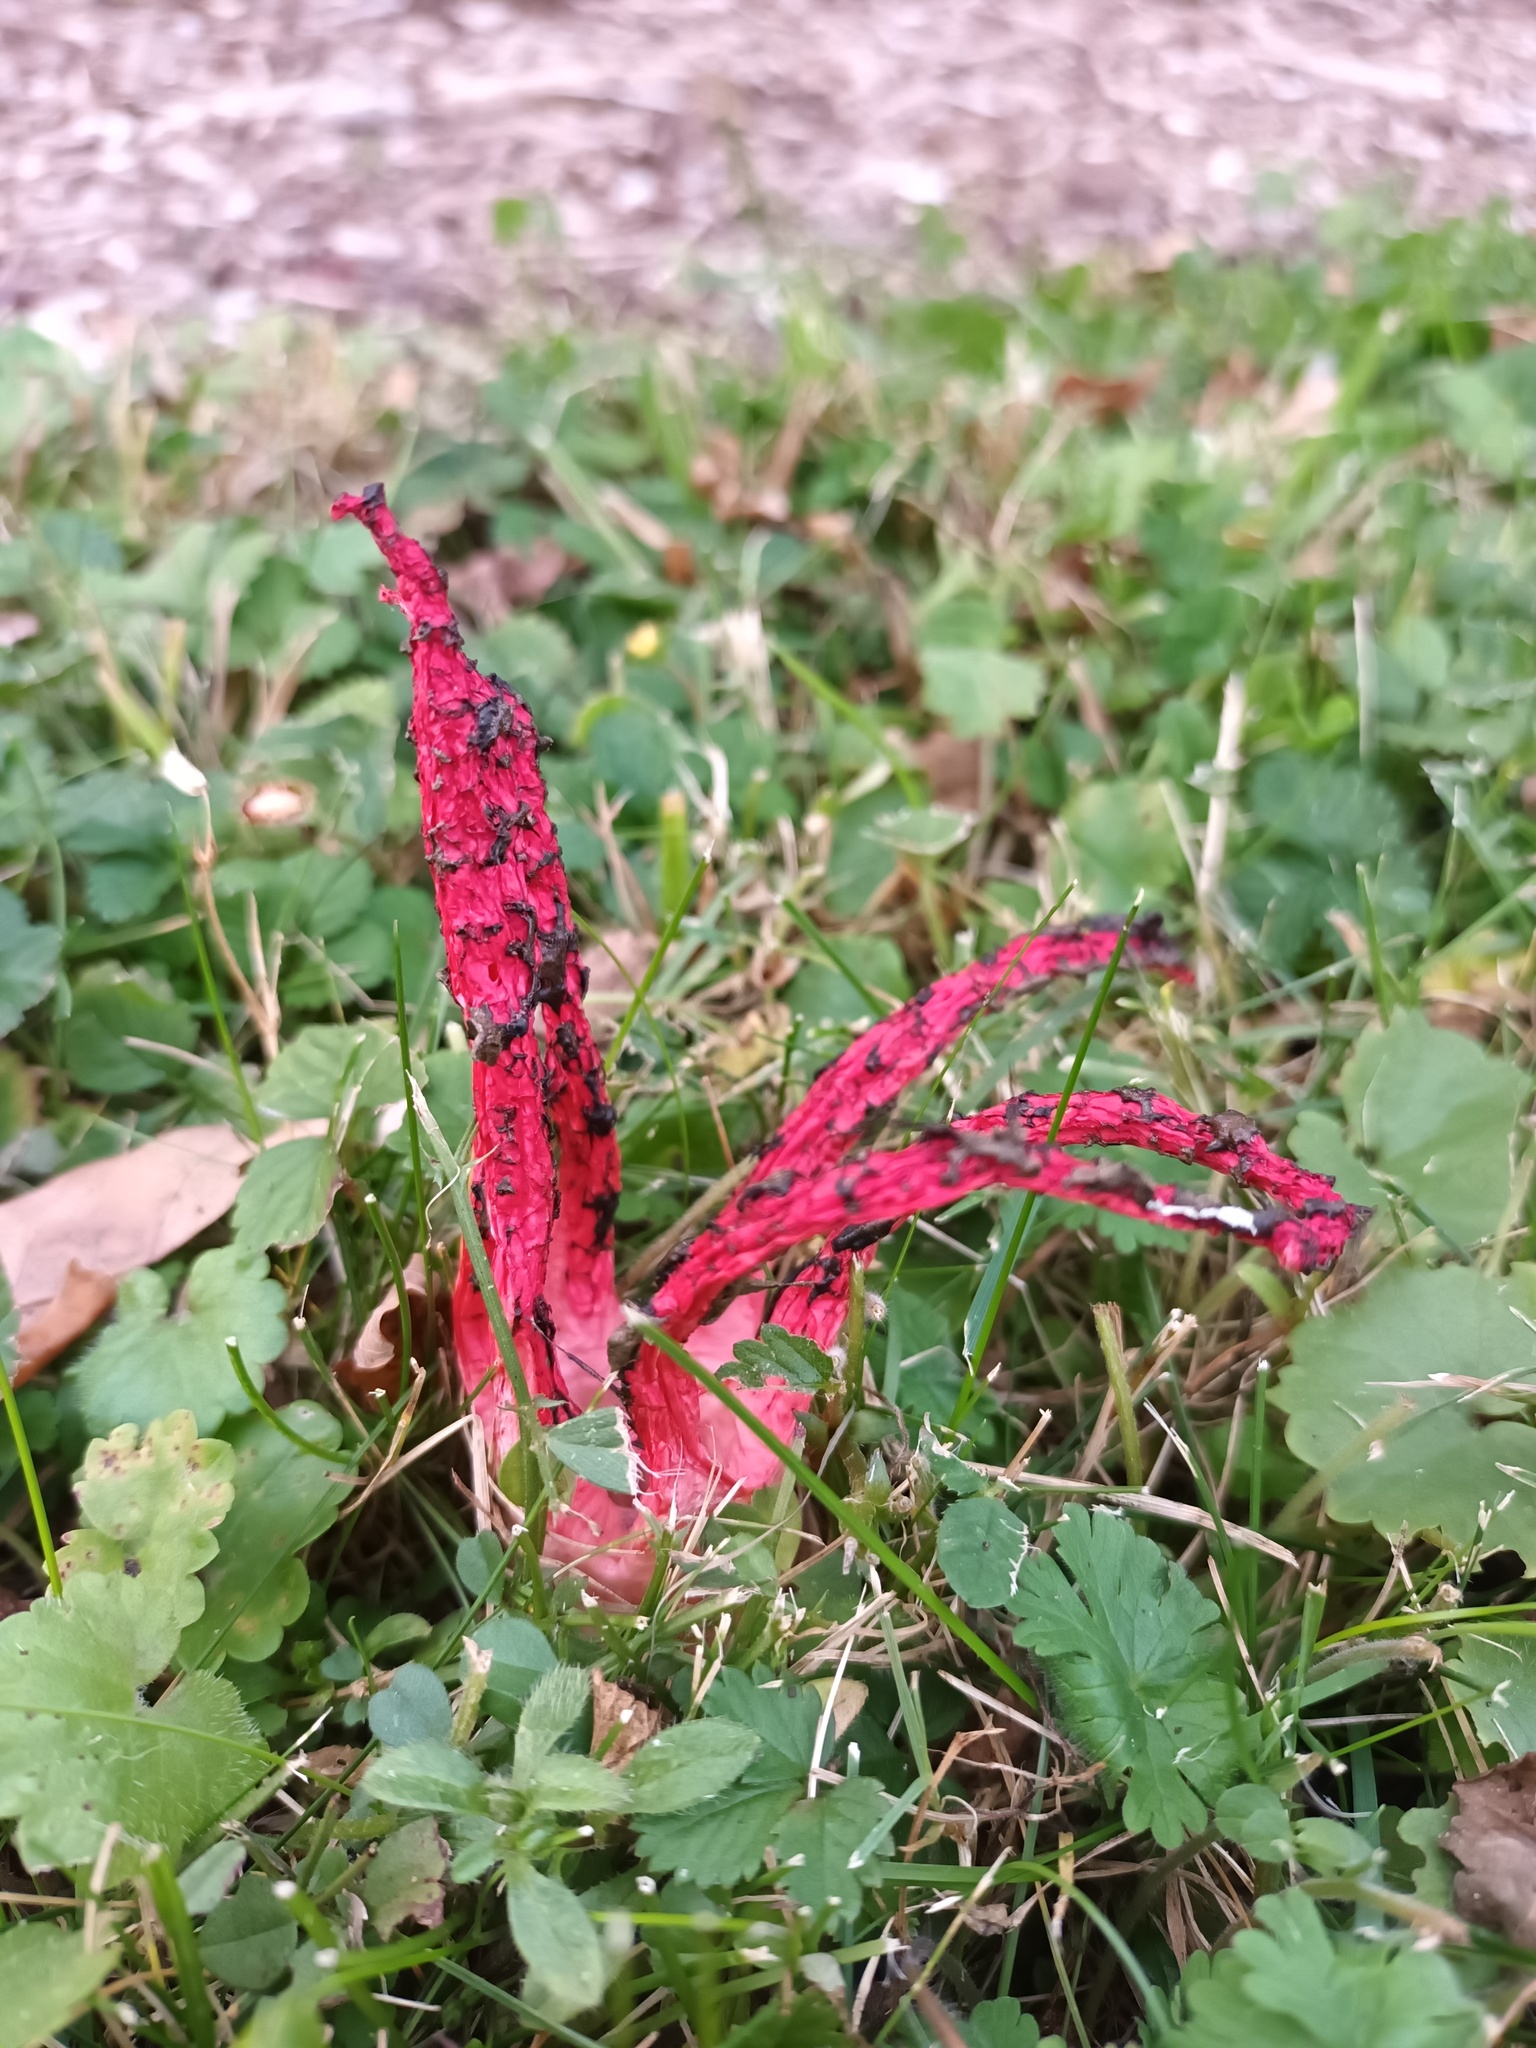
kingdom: Fungi
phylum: Basidiomycota
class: Agaricomycetes
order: Phallales
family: Phallaceae
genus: Clathrus
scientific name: Clathrus archeri
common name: Devil's fingers
